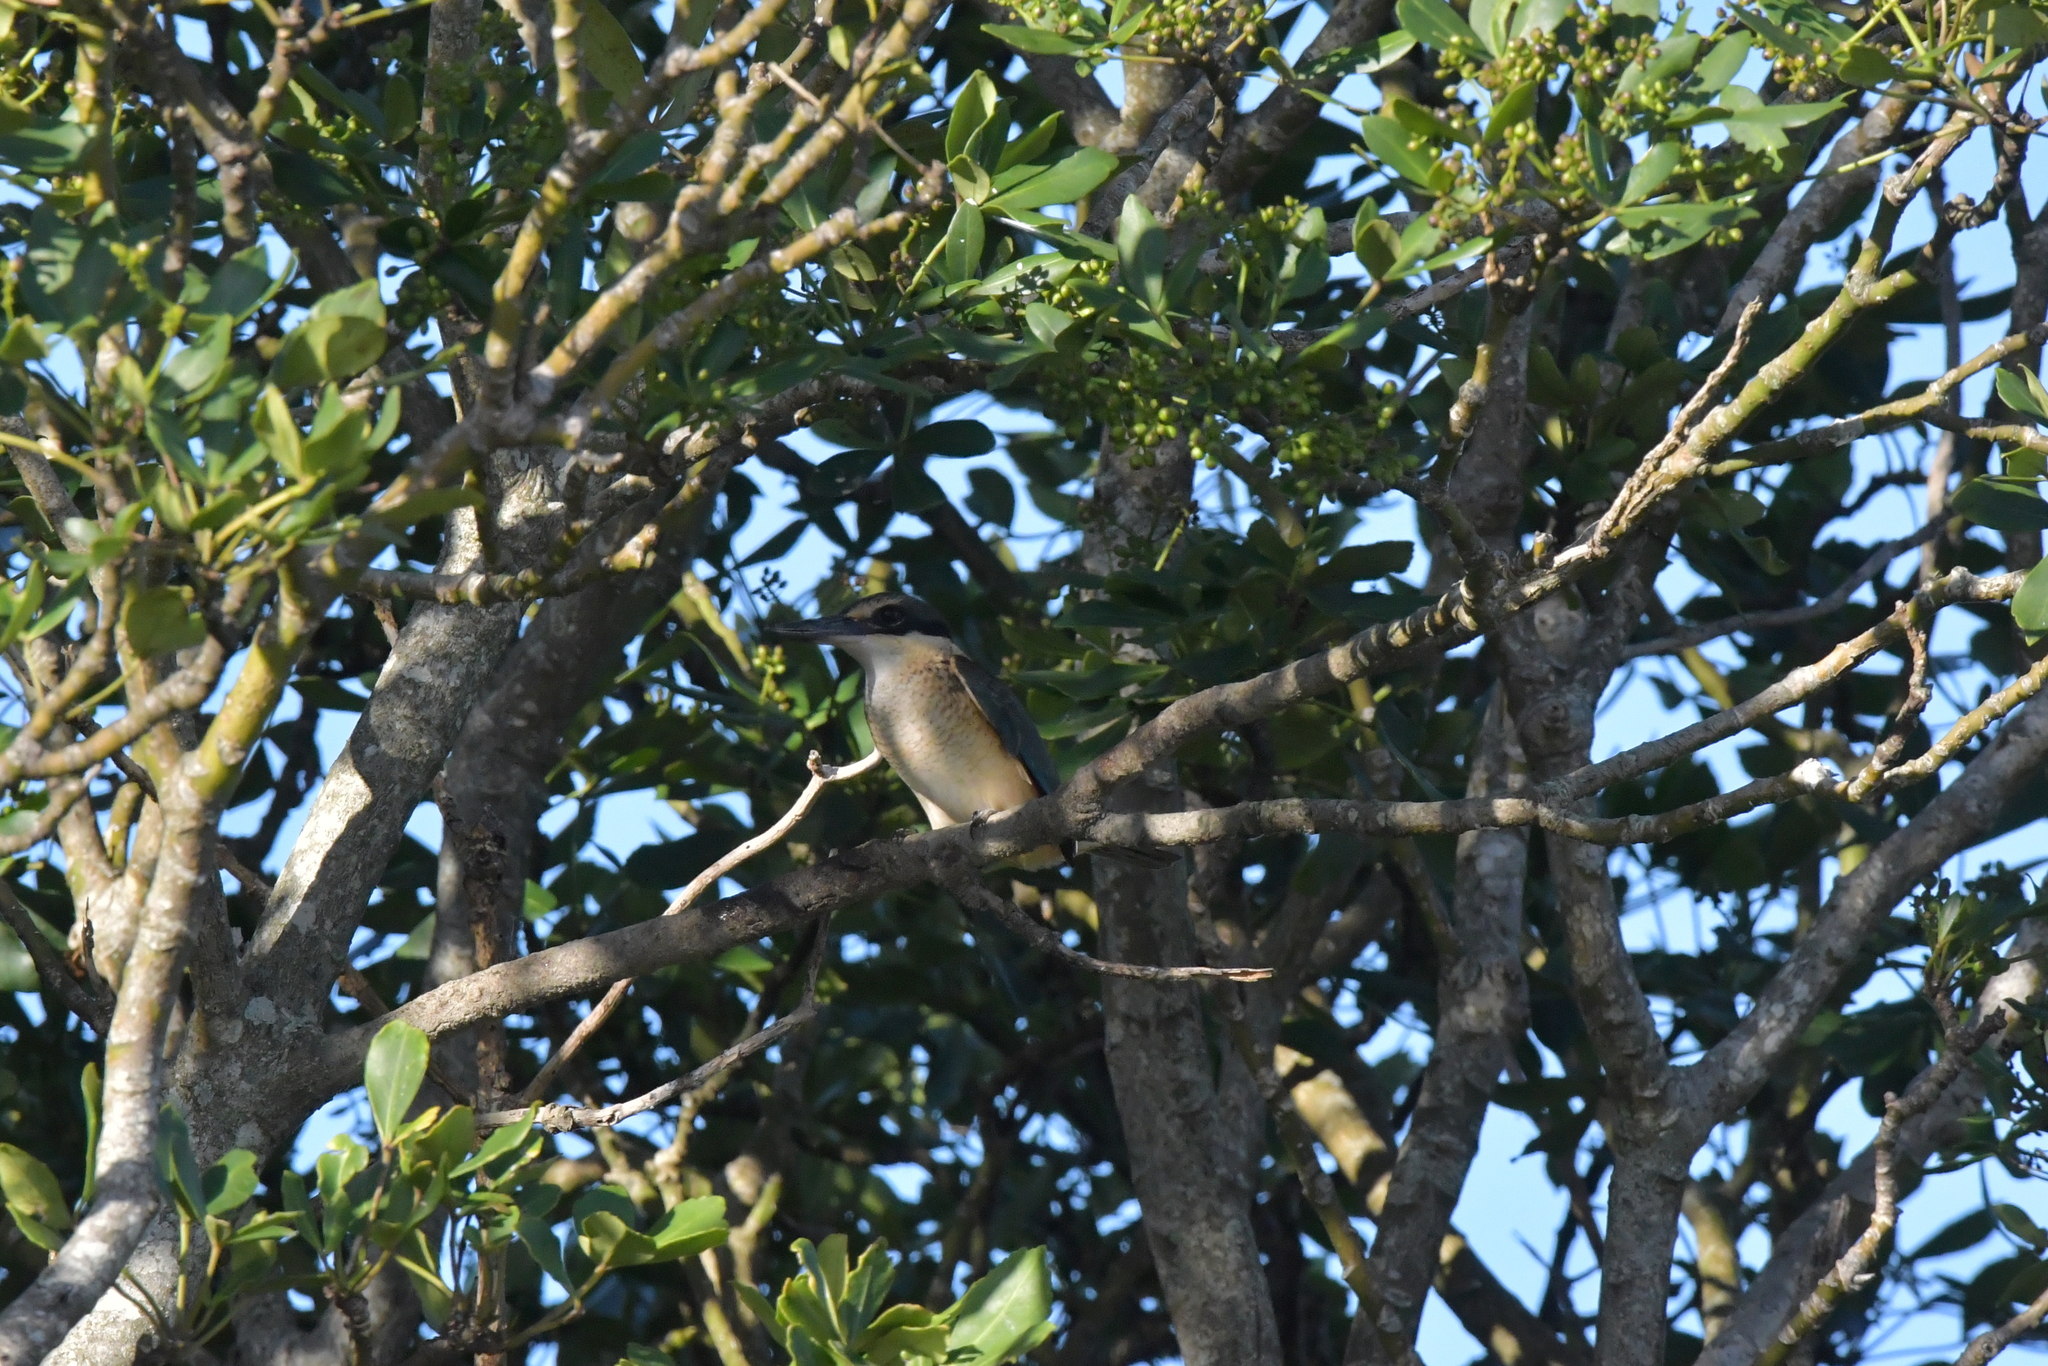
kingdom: Animalia
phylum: Chordata
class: Aves
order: Coraciiformes
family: Alcedinidae
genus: Todiramphus
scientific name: Todiramphus sanctus
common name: Sacred kingfisher
